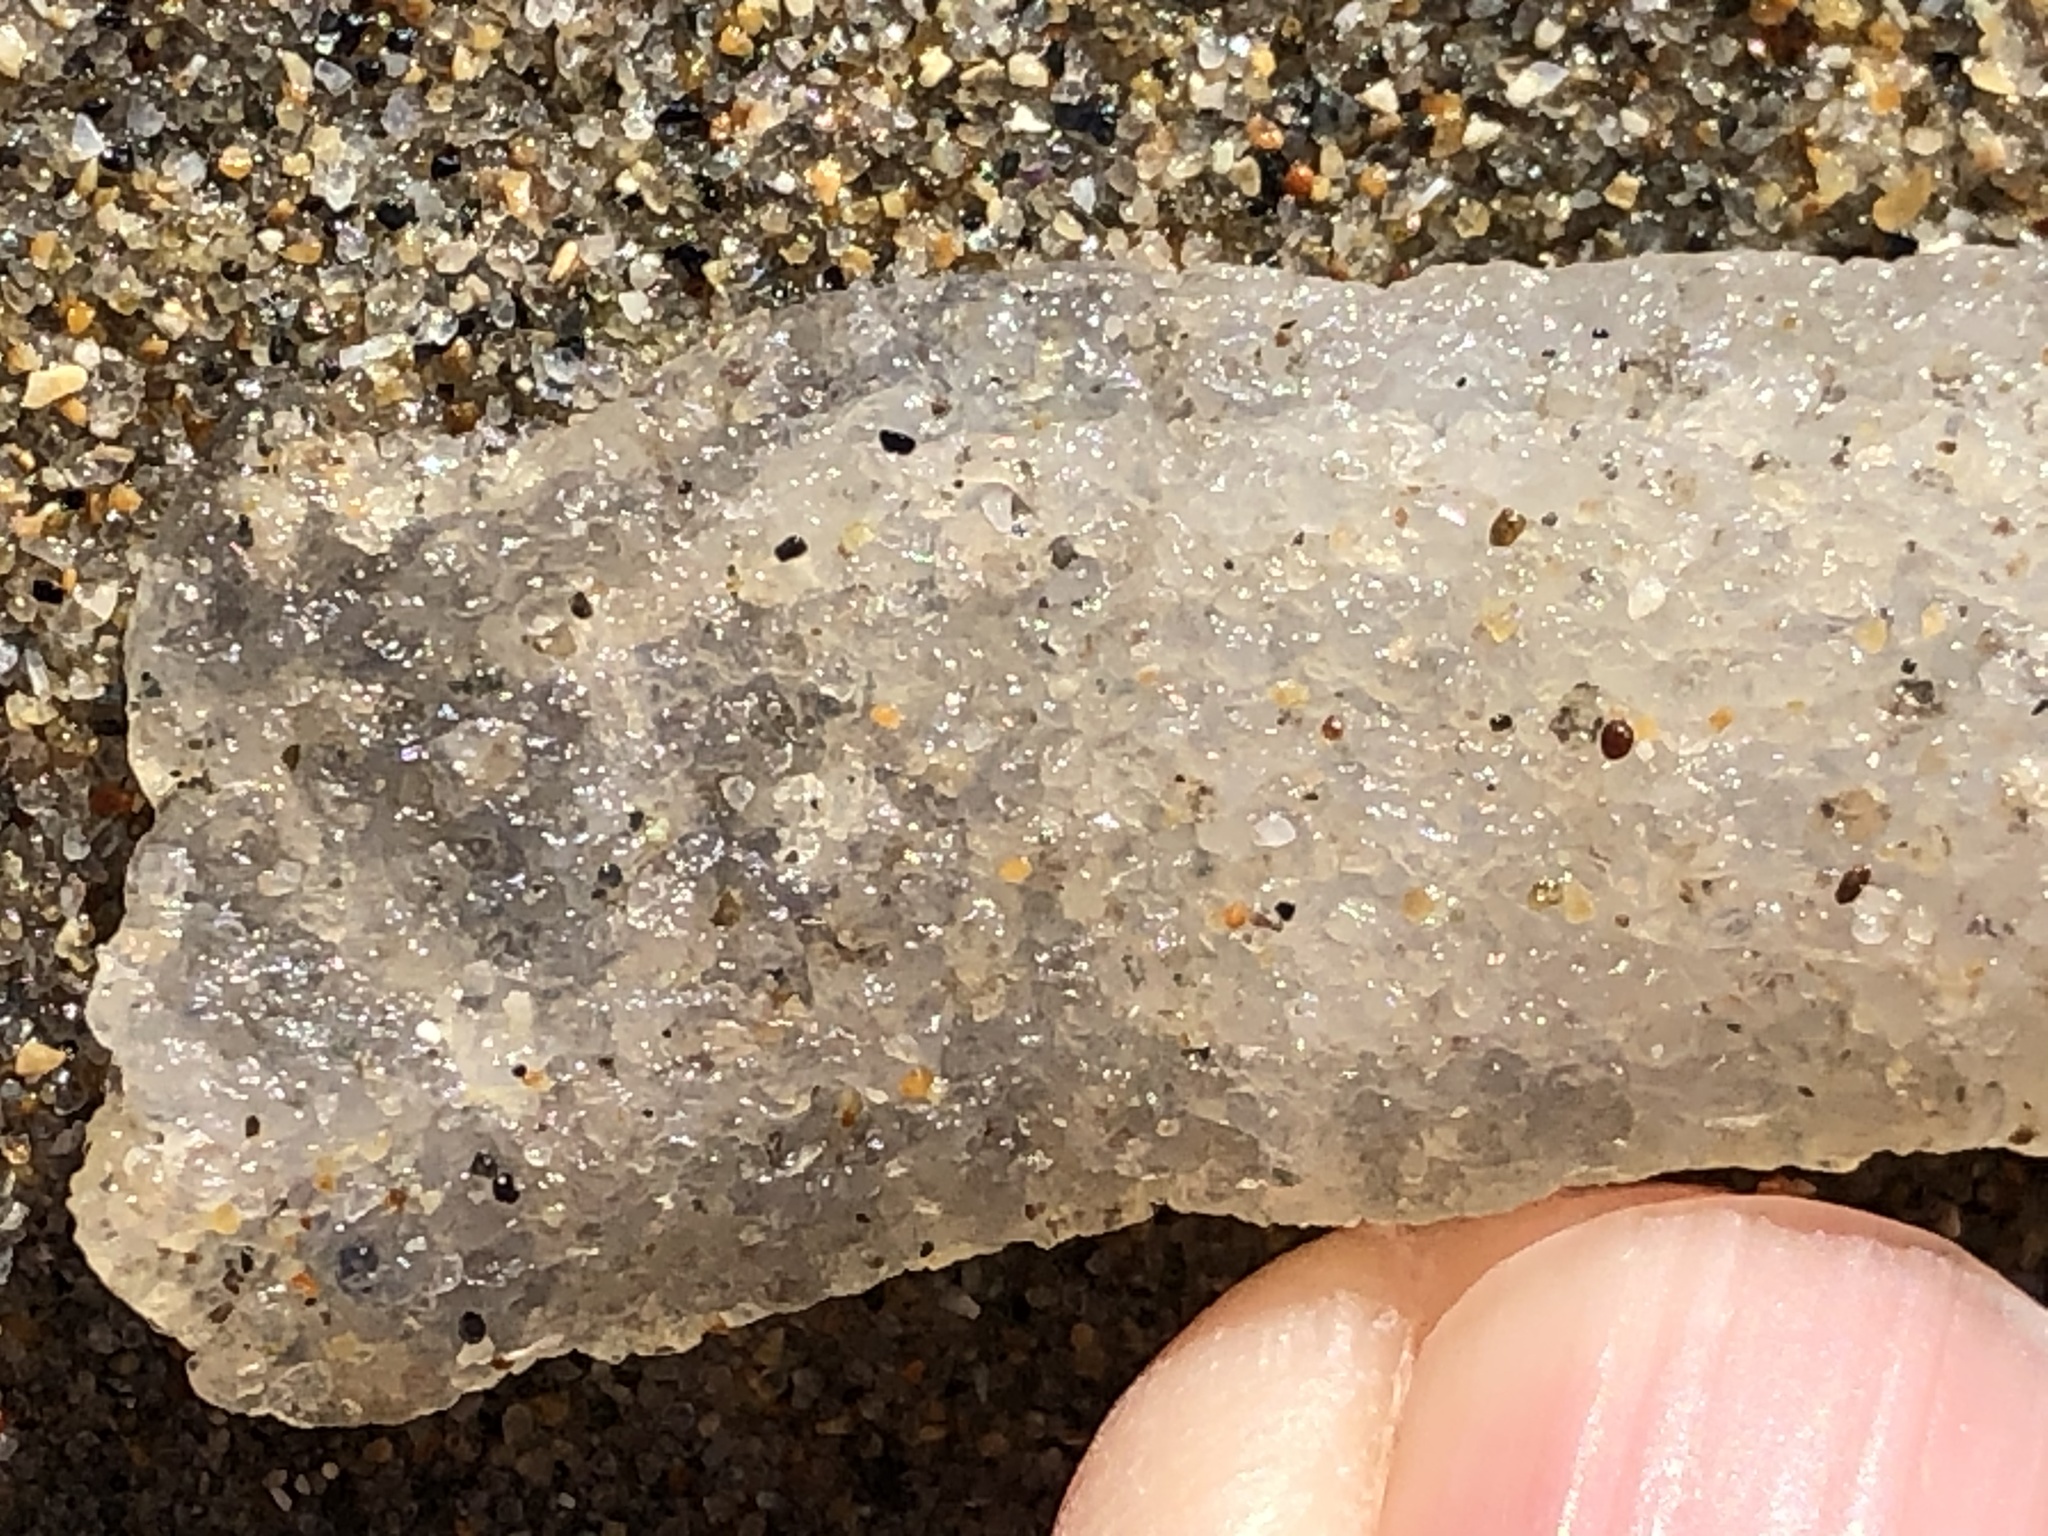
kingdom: Animalia
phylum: Chordata
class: Thaliacea
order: Pyrosomatida
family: Pyrosomatidae
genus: Pyrosoma
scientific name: Pyrosoma atlanticum
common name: Atlantic pyrosomes
